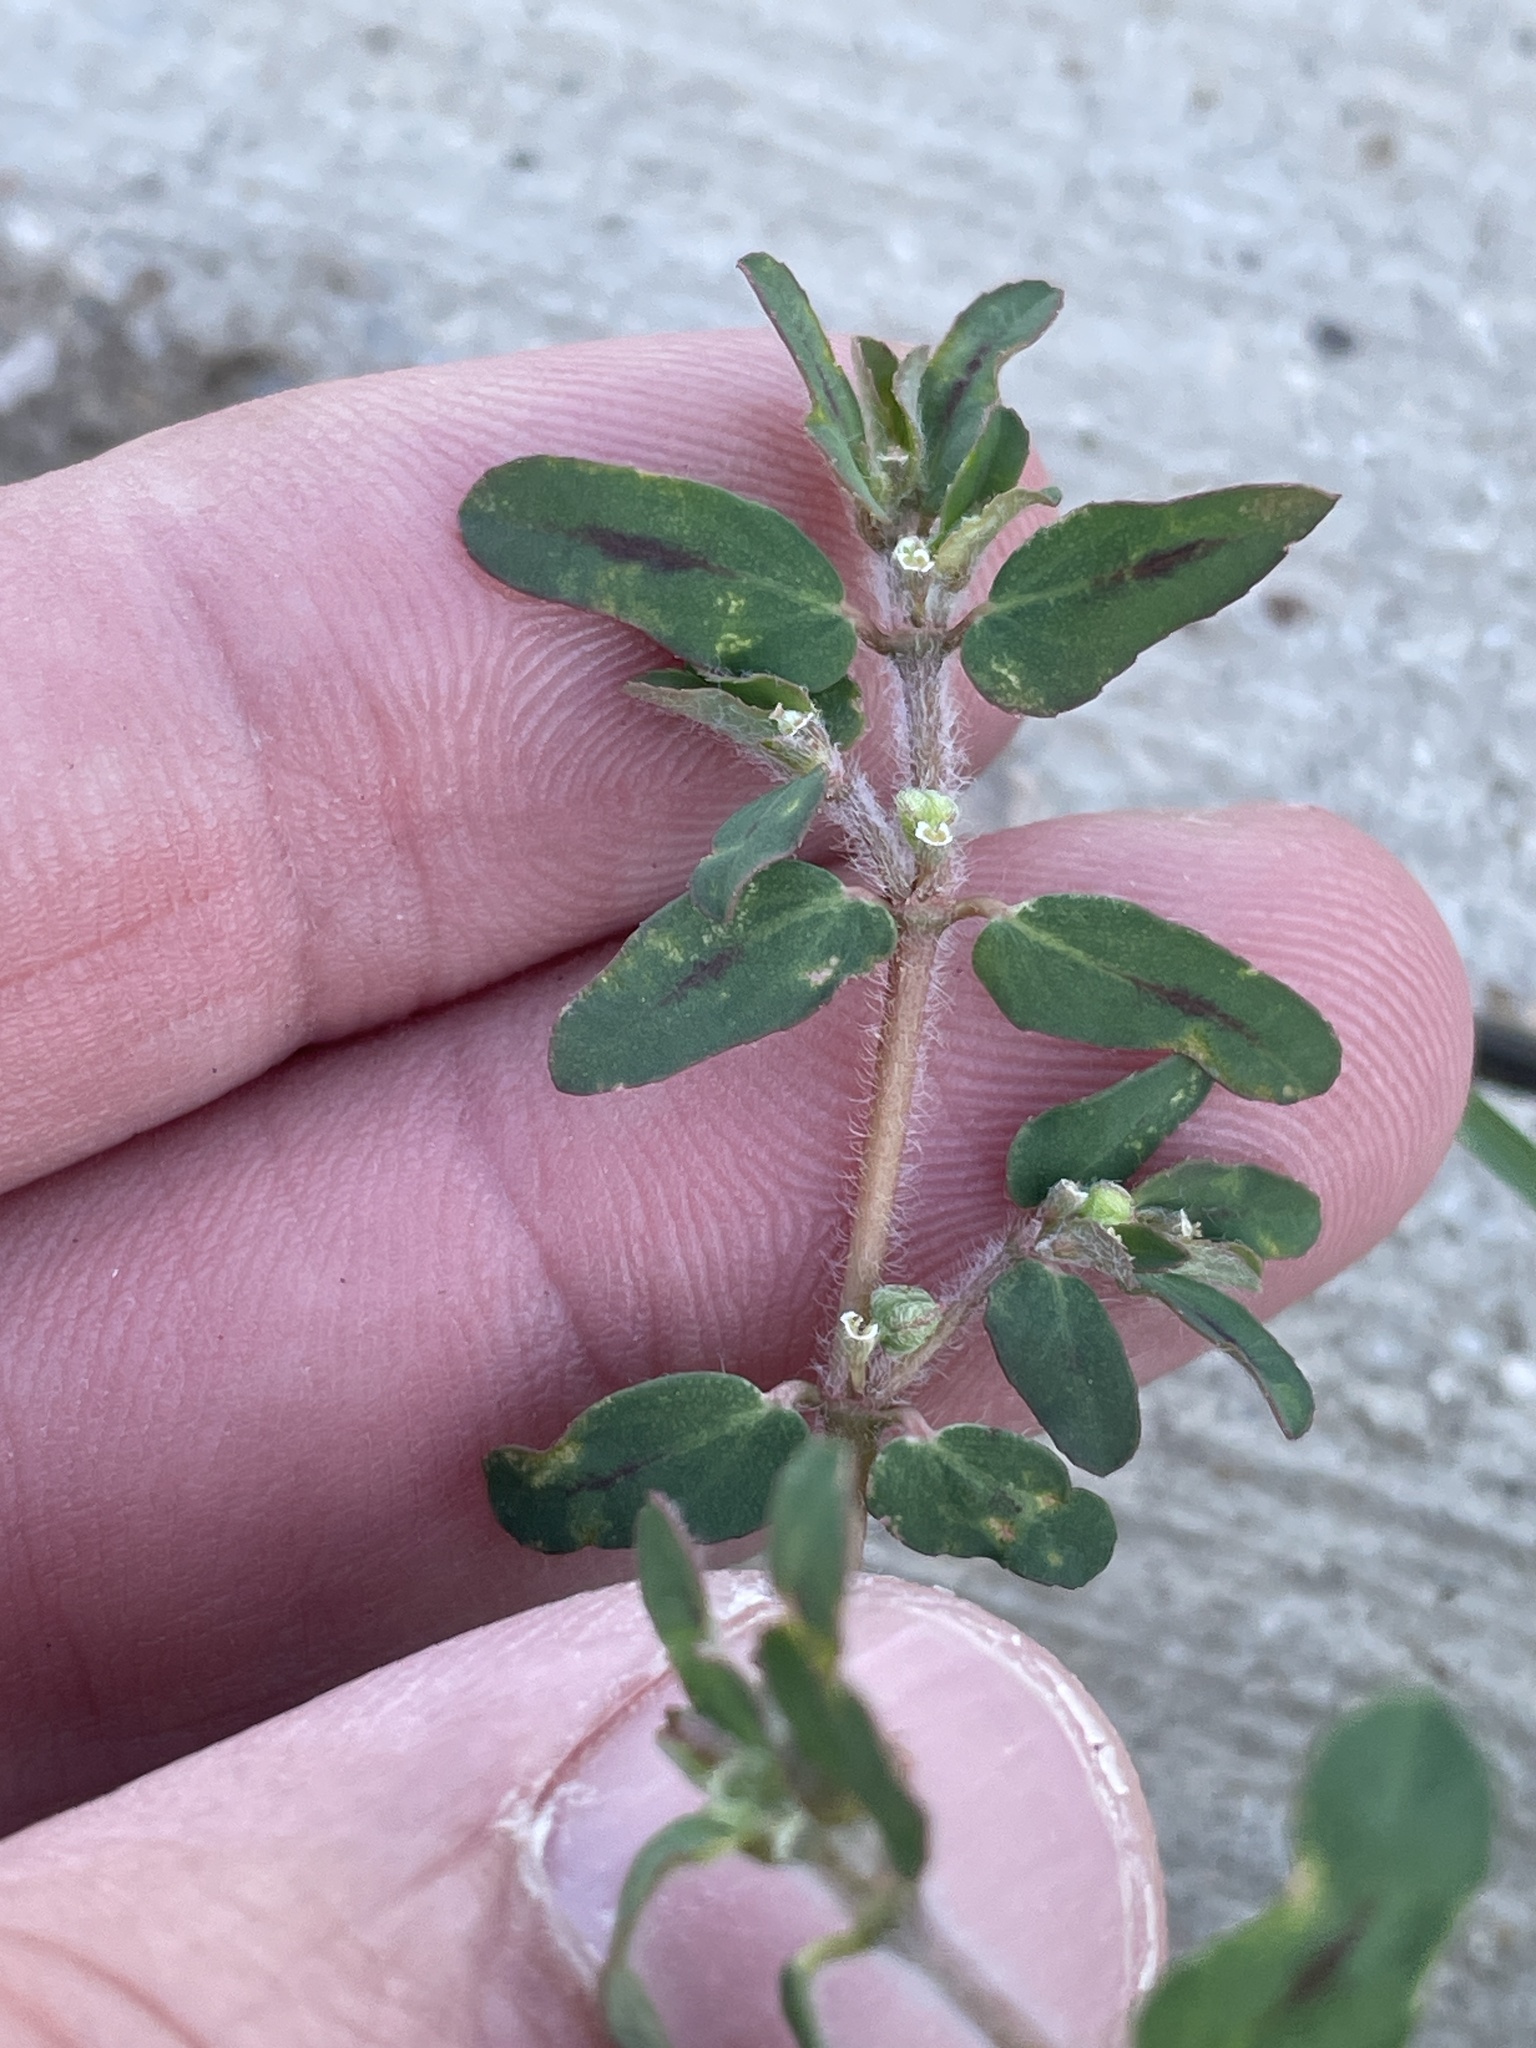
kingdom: Plantae
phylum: Tracheophyta
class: Magnoliopsida
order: Malpighiales
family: Euphorbiaceae
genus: Euphorbia
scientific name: Euphorbia maculata
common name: Spotted spurge
